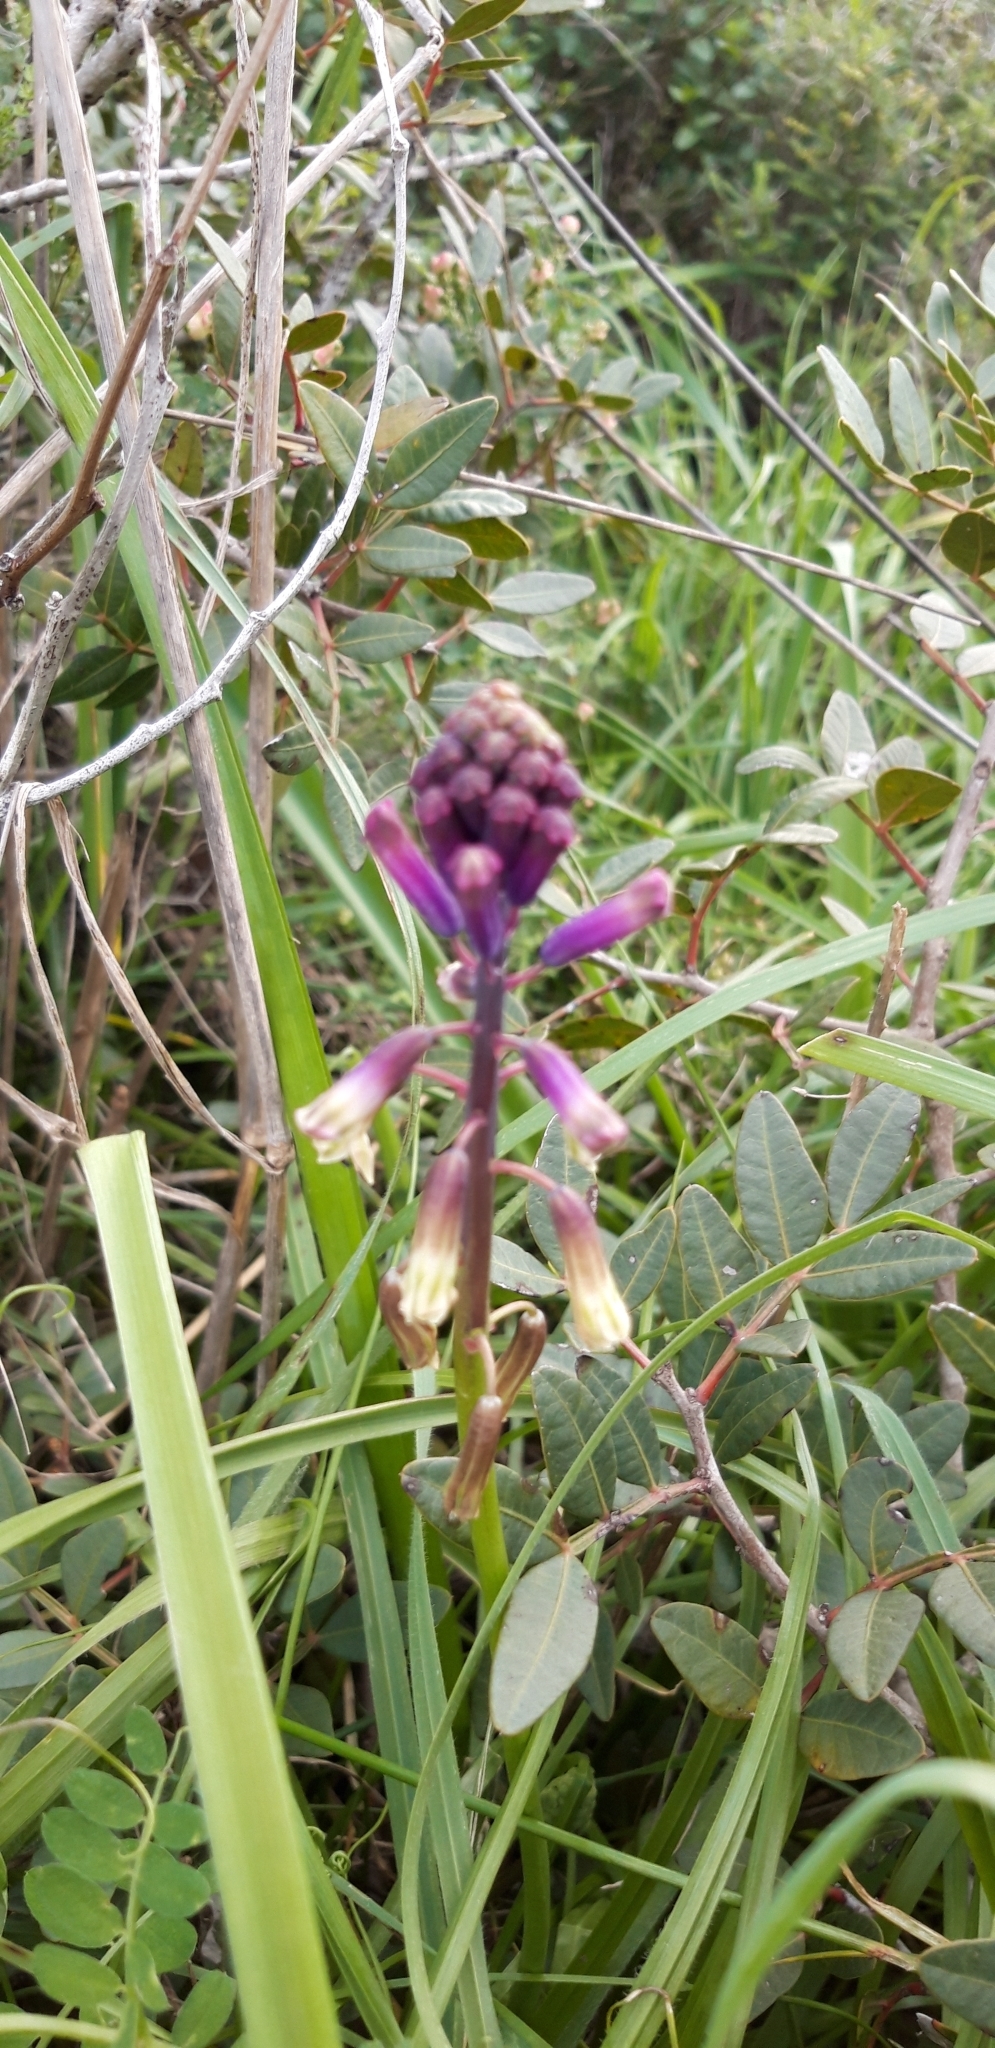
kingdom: Plantae
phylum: Tracheophyta
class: Liliopsida
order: Asparagales
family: Asparagaceae
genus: Bellevalia
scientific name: Bellevalia trifoliata
